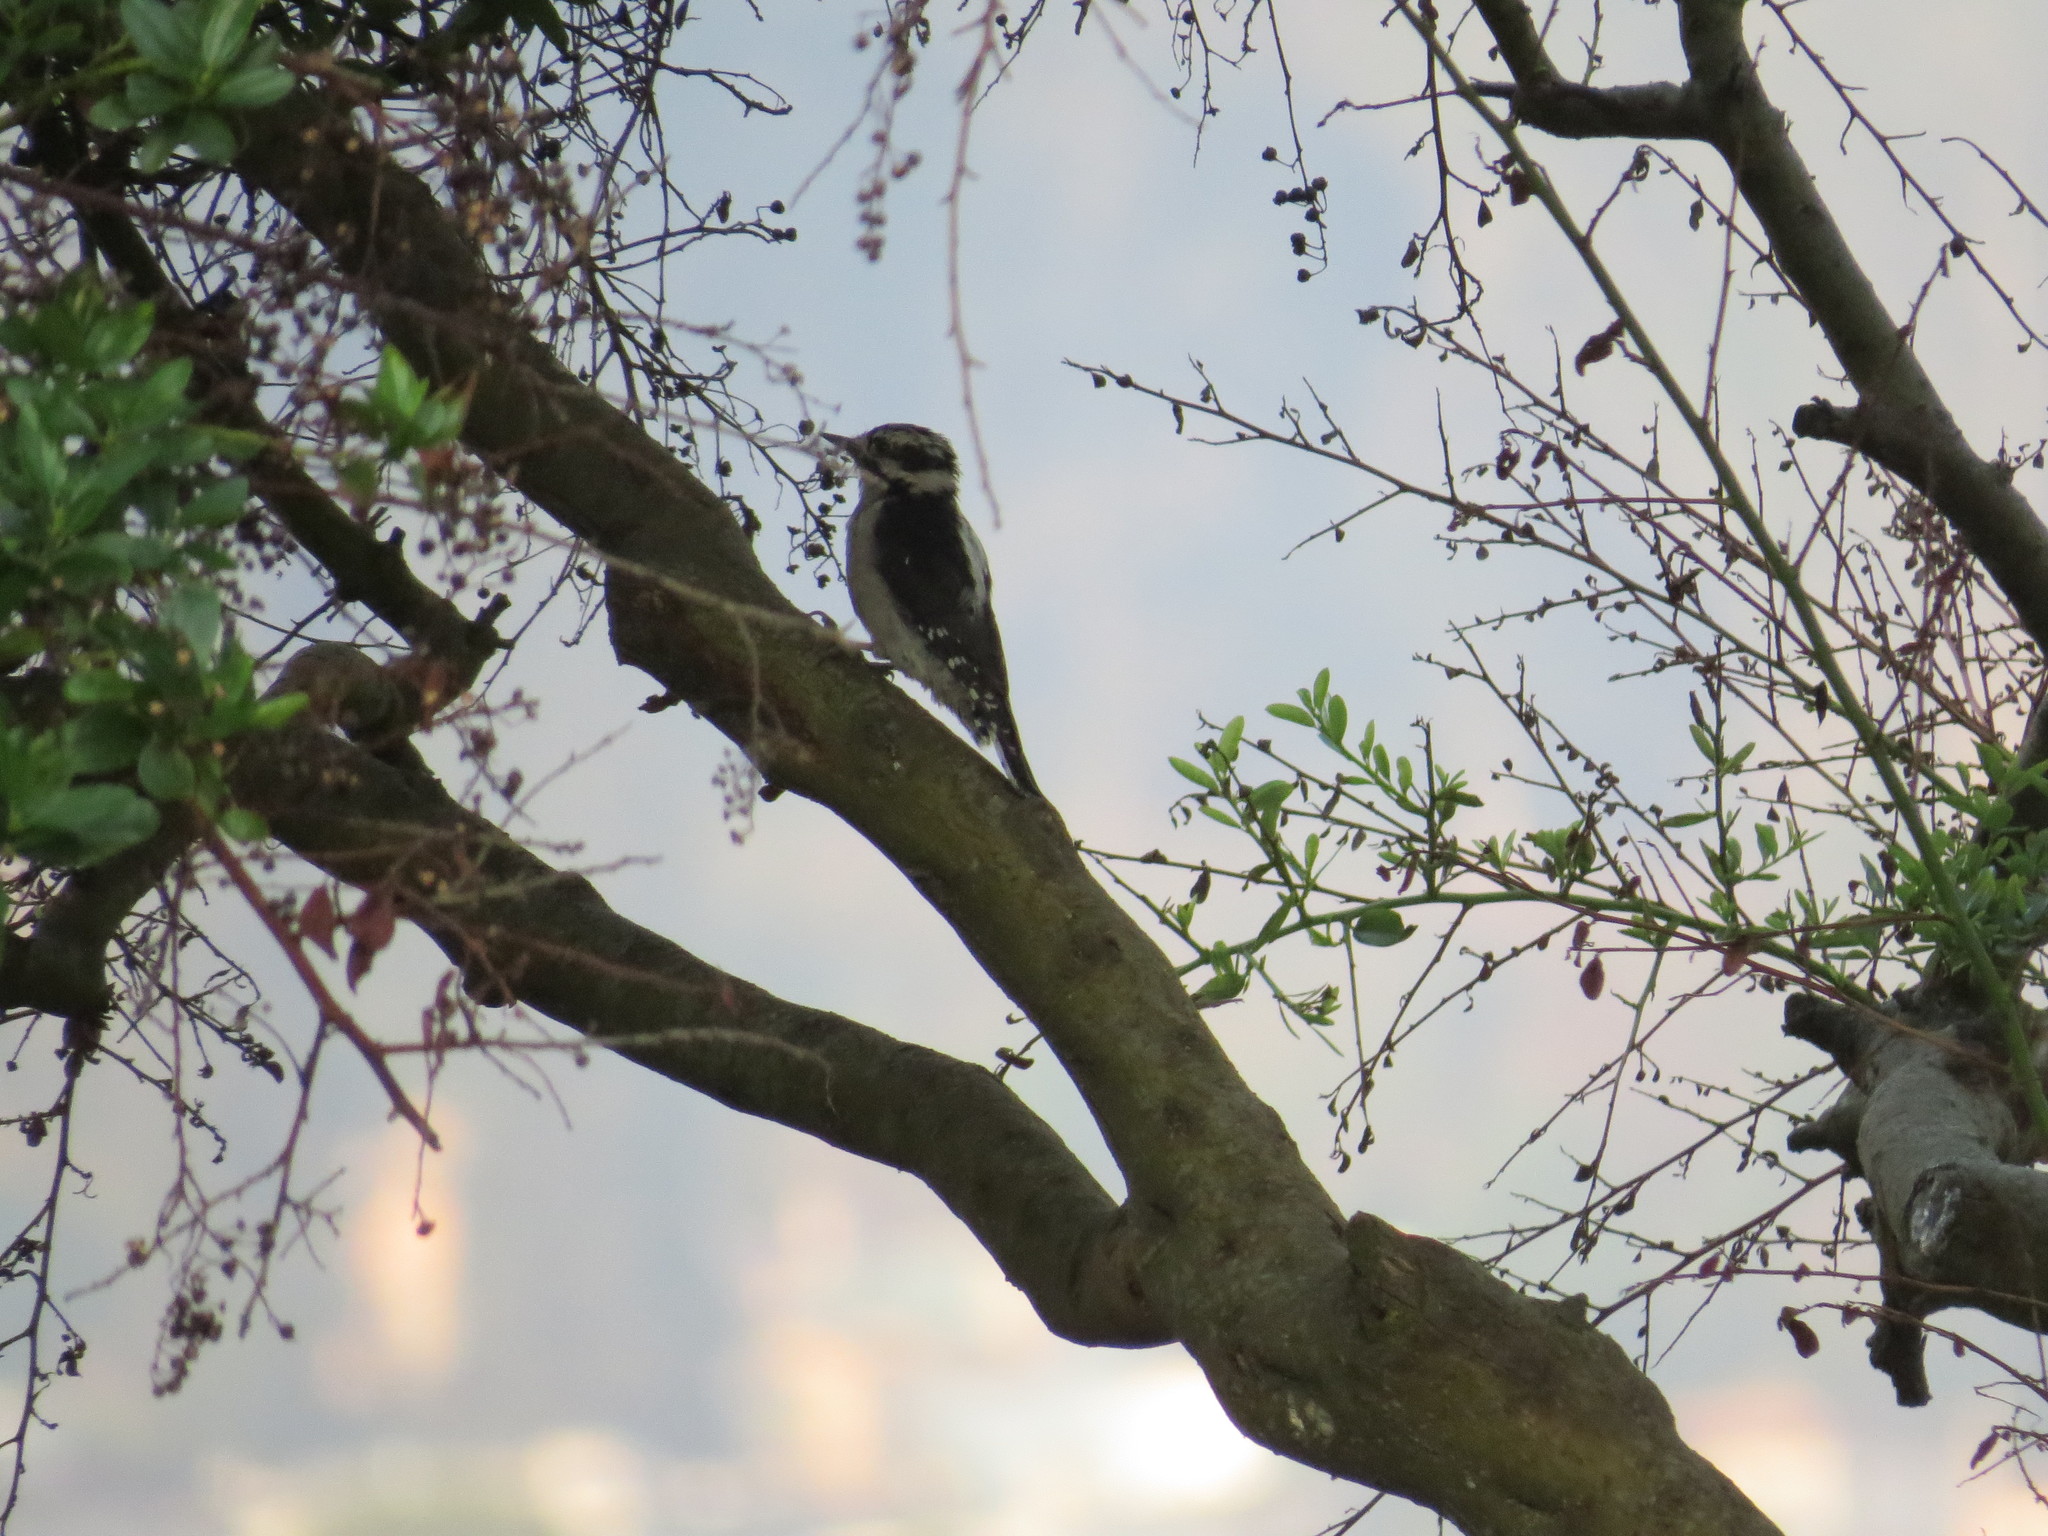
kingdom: Animalia
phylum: Chordata
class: Aves
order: Piciformes
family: Picidae
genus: Dryobates
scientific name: Dryobates pubescens
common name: Downy woodpecker
